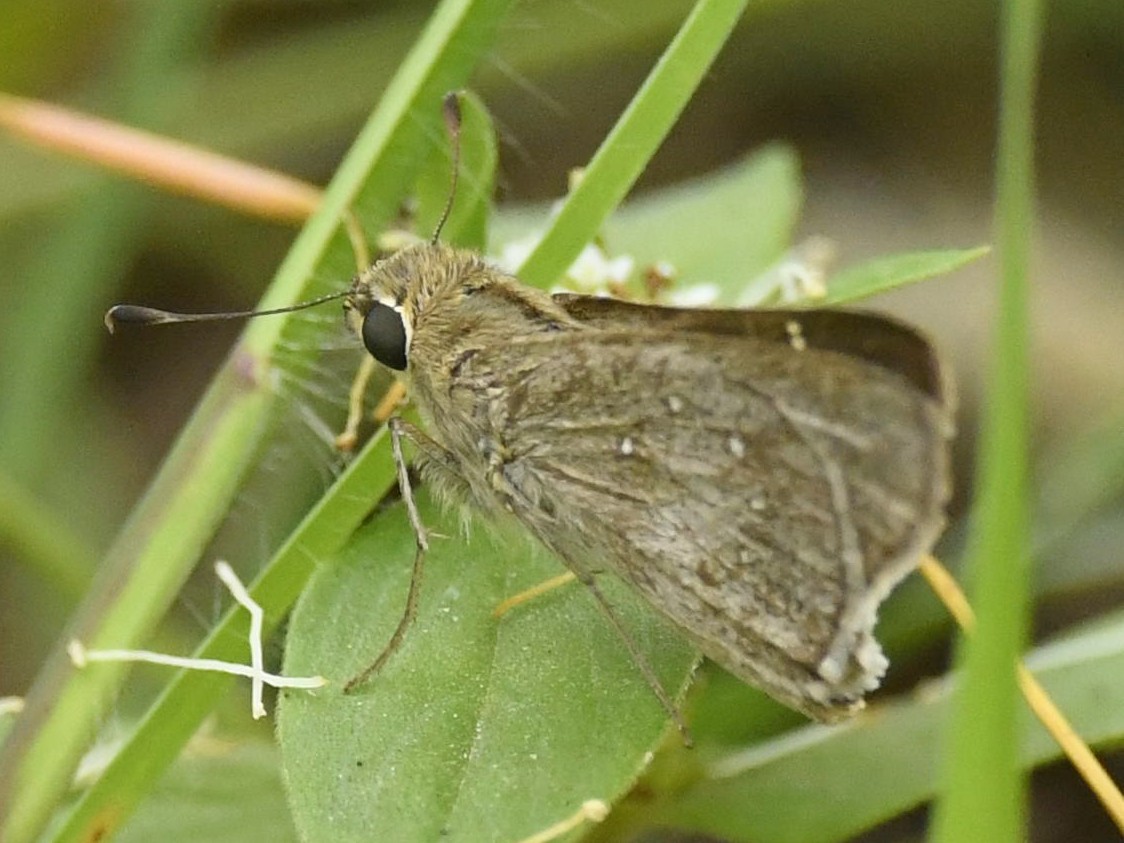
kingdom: Animalia
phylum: Arthropoda
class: Insecta
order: Lepidoptera
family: Hesperiidae
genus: Pelopidas
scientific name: Pelopidas mathias
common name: Black-branded swift
